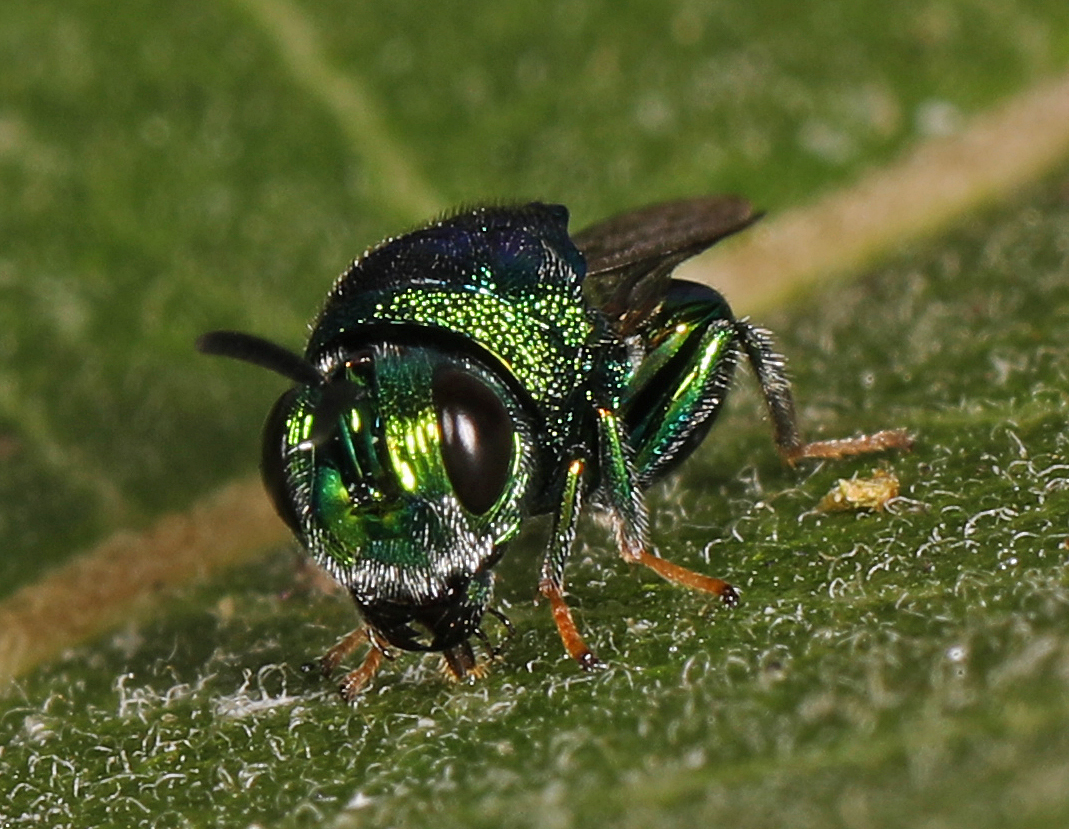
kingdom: Animalia
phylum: Arthropoda
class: Insecta
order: Hymenoptera
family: Perilampidae
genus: Euperilampus
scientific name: Euperilampus triangularis
